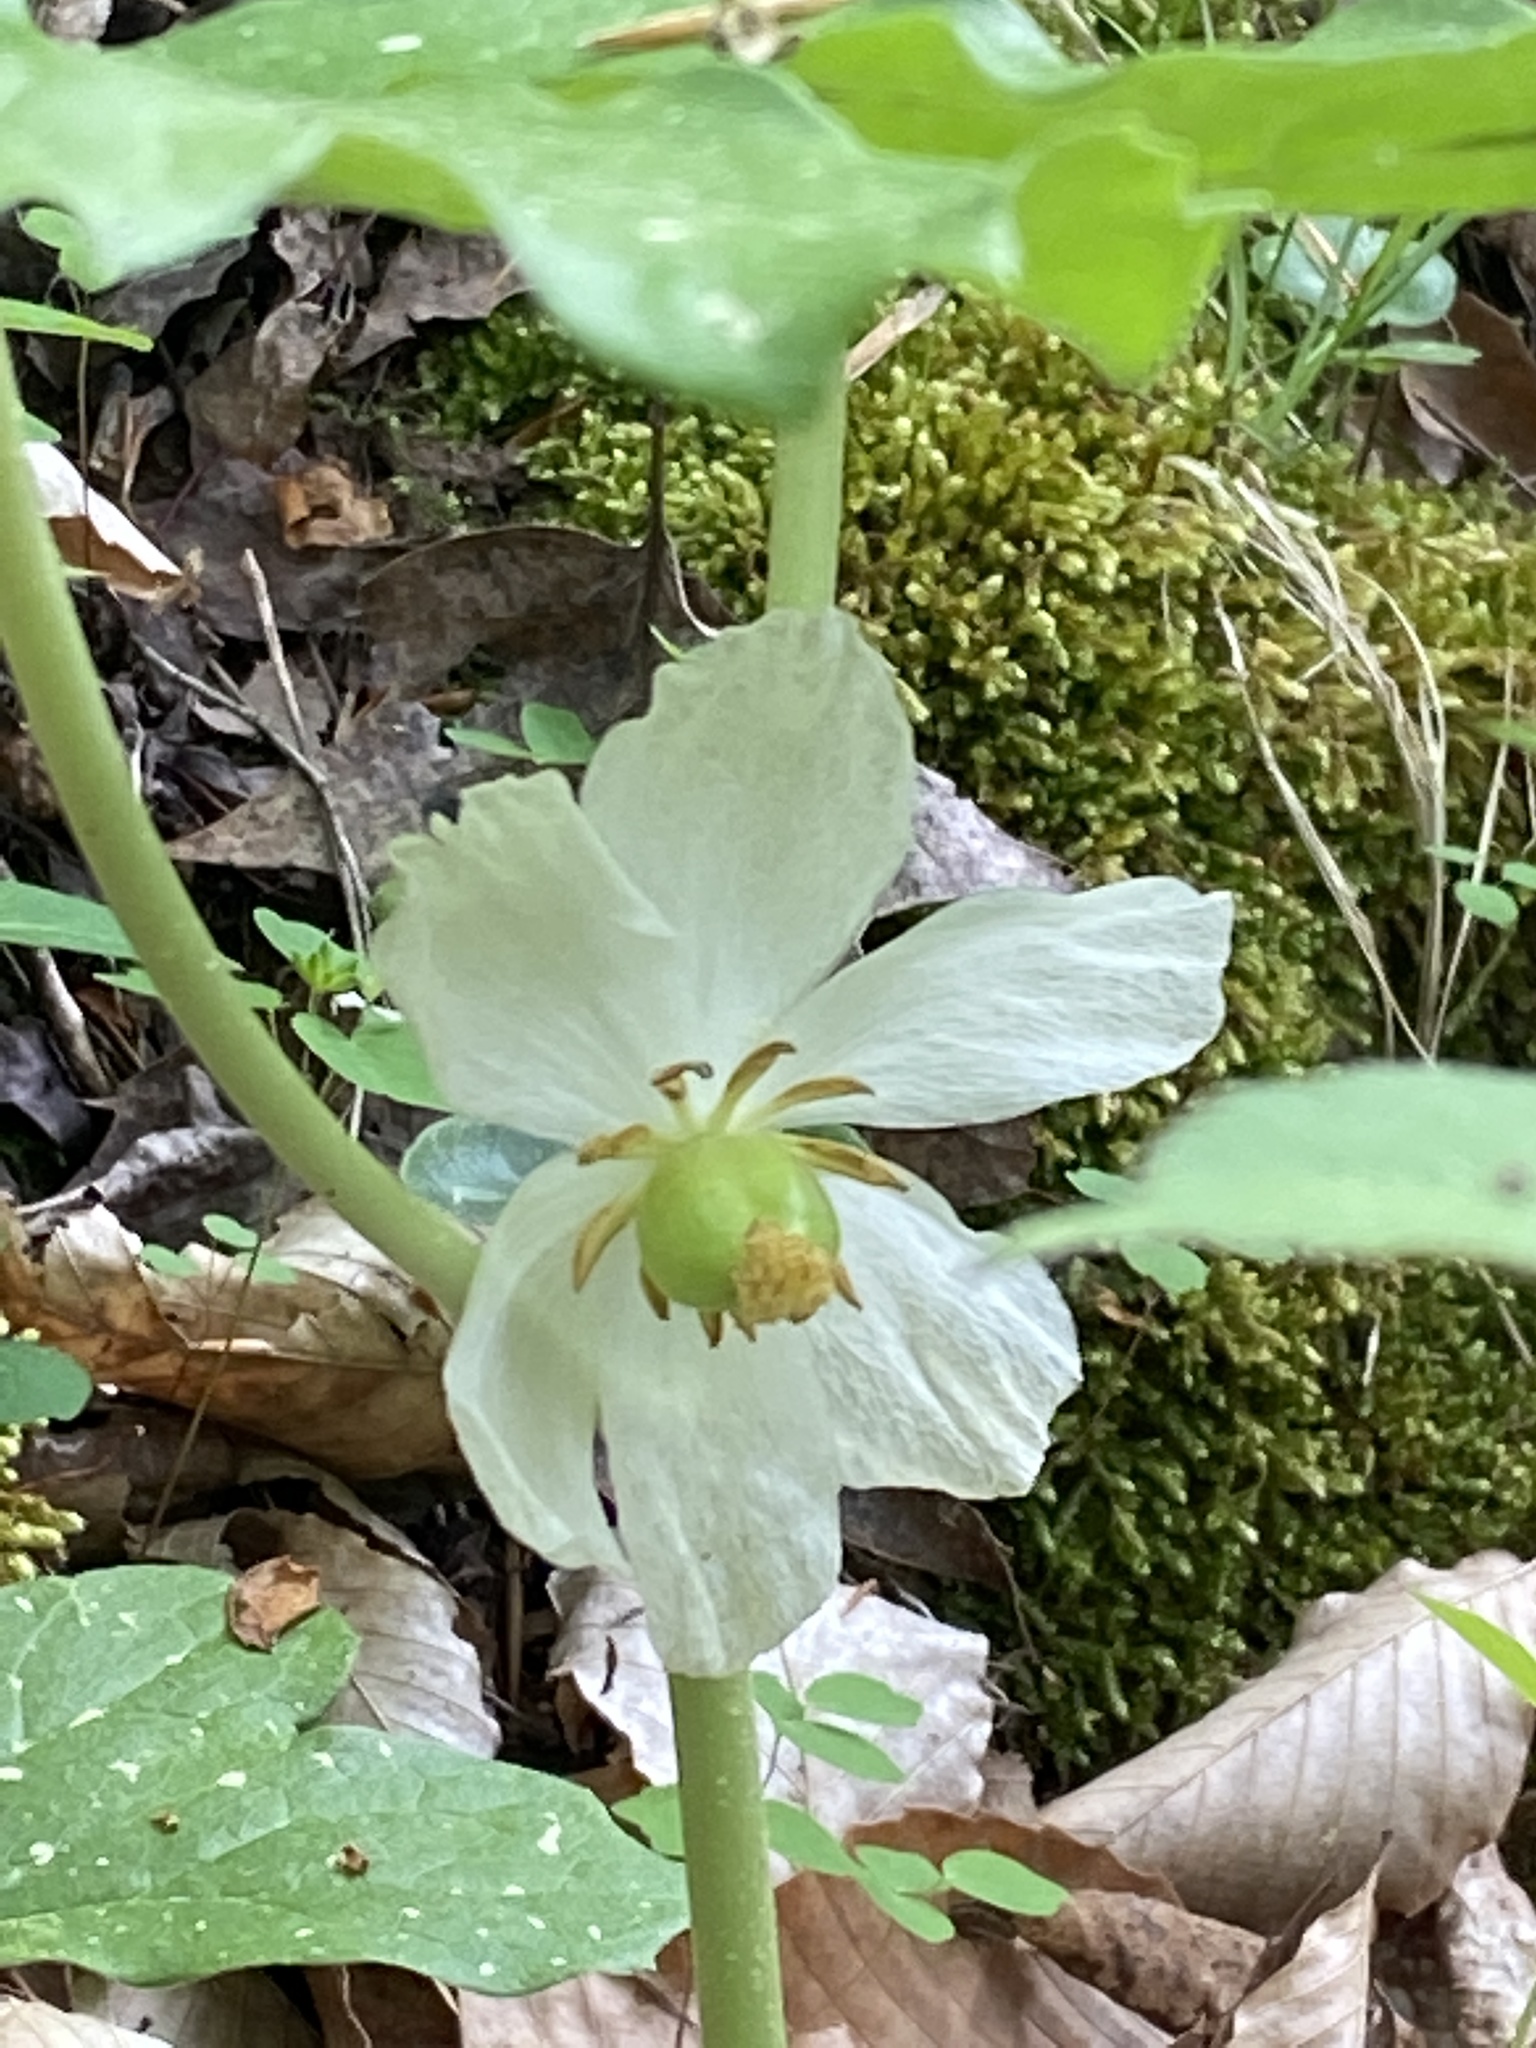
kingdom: Plantae
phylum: Tracheophyta
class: Magnoliopsida
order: Ranunculales
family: Berberidaceae
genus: Podophyllum
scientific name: Podophyllum peltatum
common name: Wild mandrake
